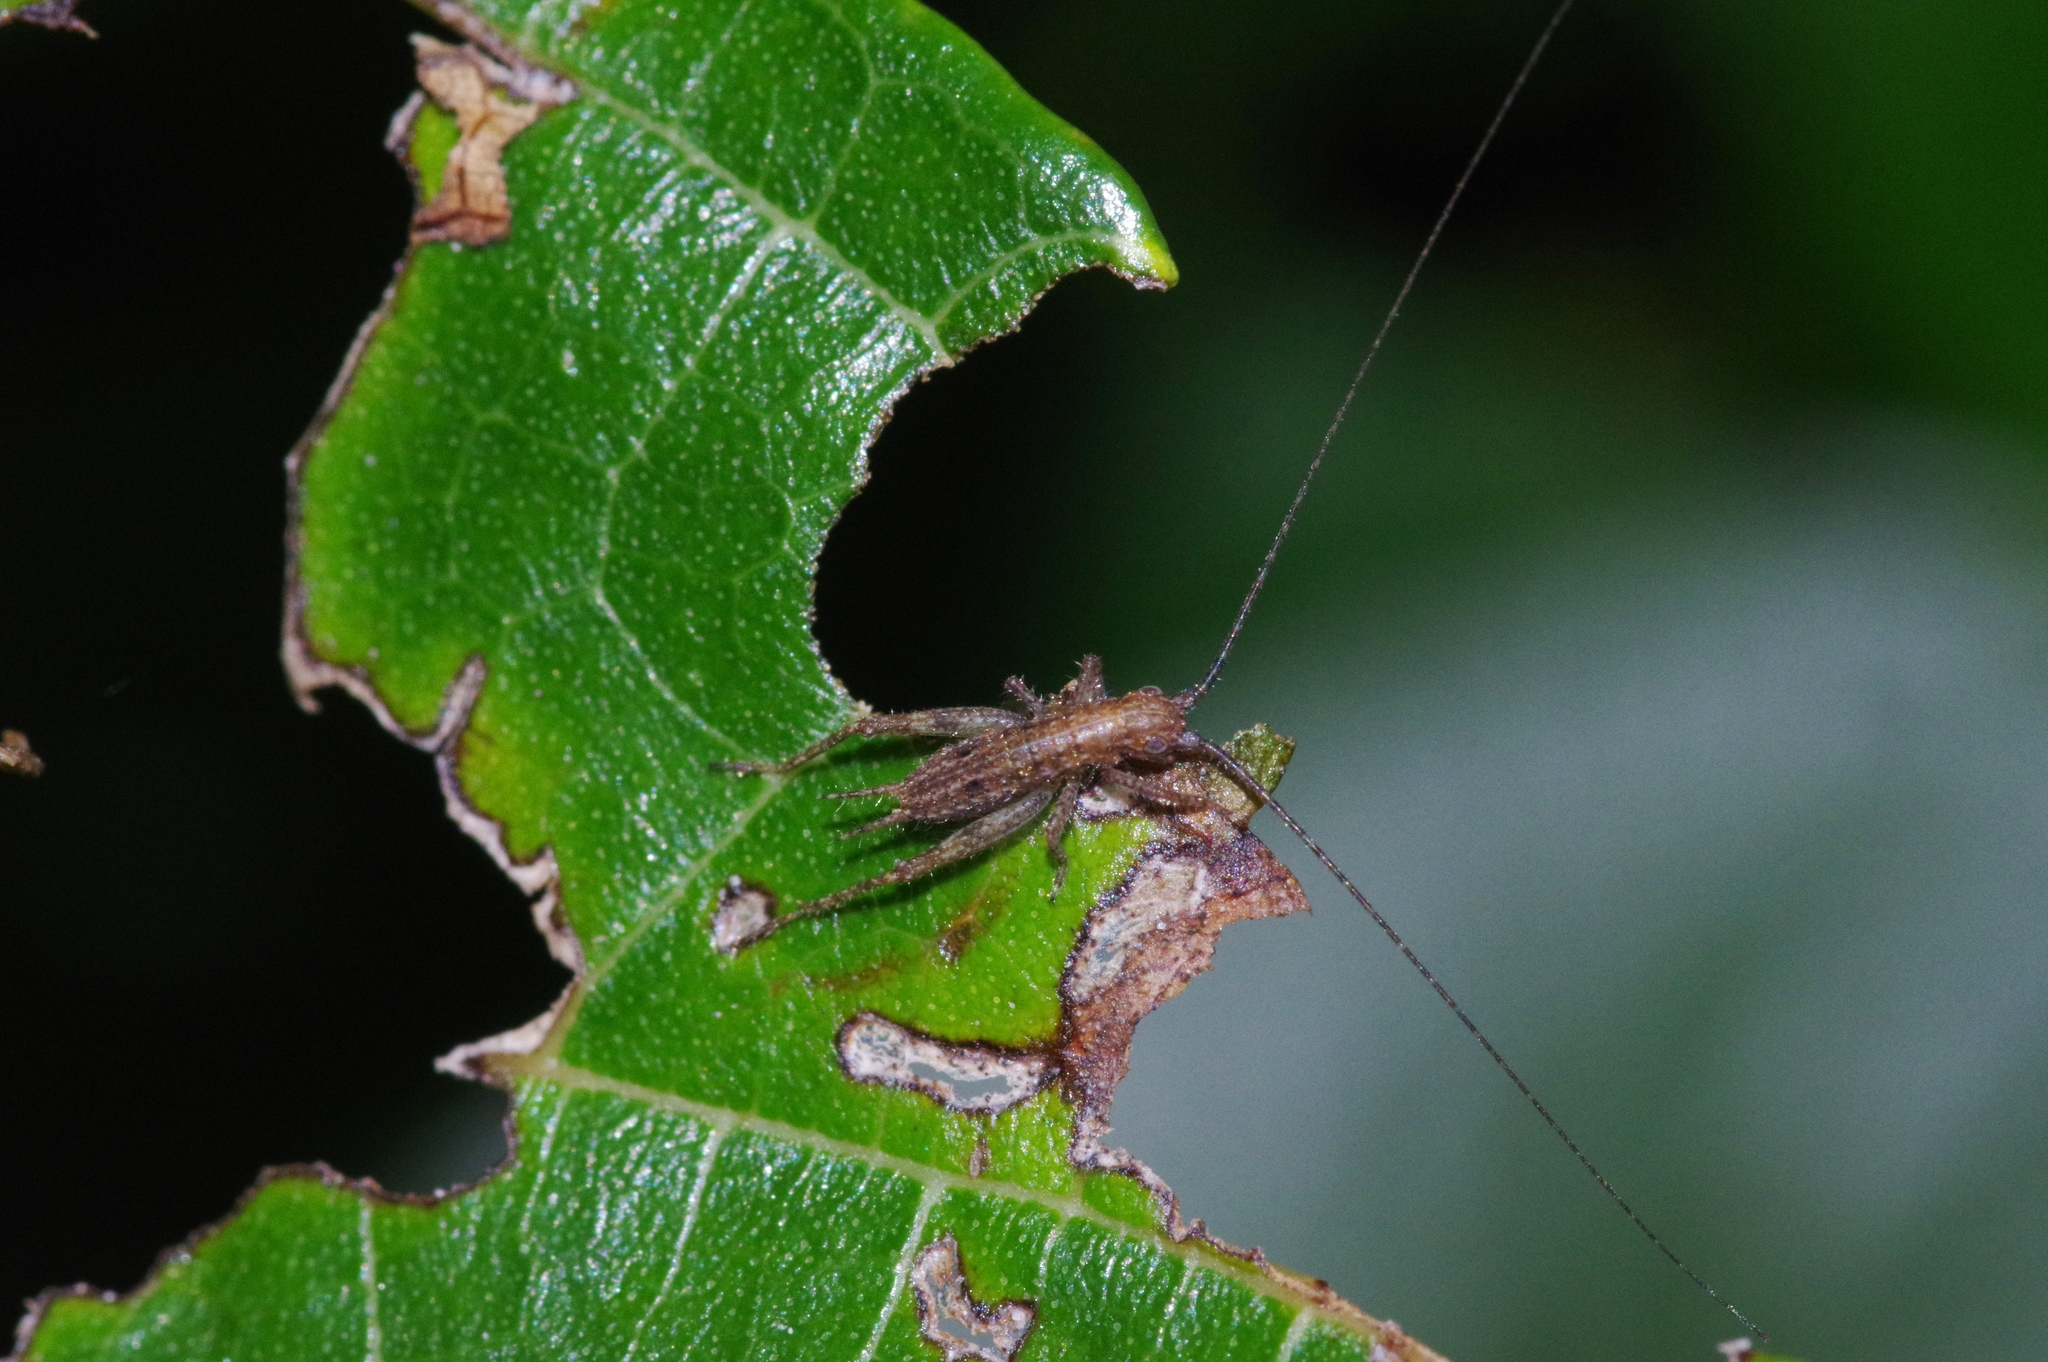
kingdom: Animalia
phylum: Arthropoda
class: Insecta
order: Orthoptera
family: Gryllidae
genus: Aphonoides
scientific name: Aphonoides rufescens
